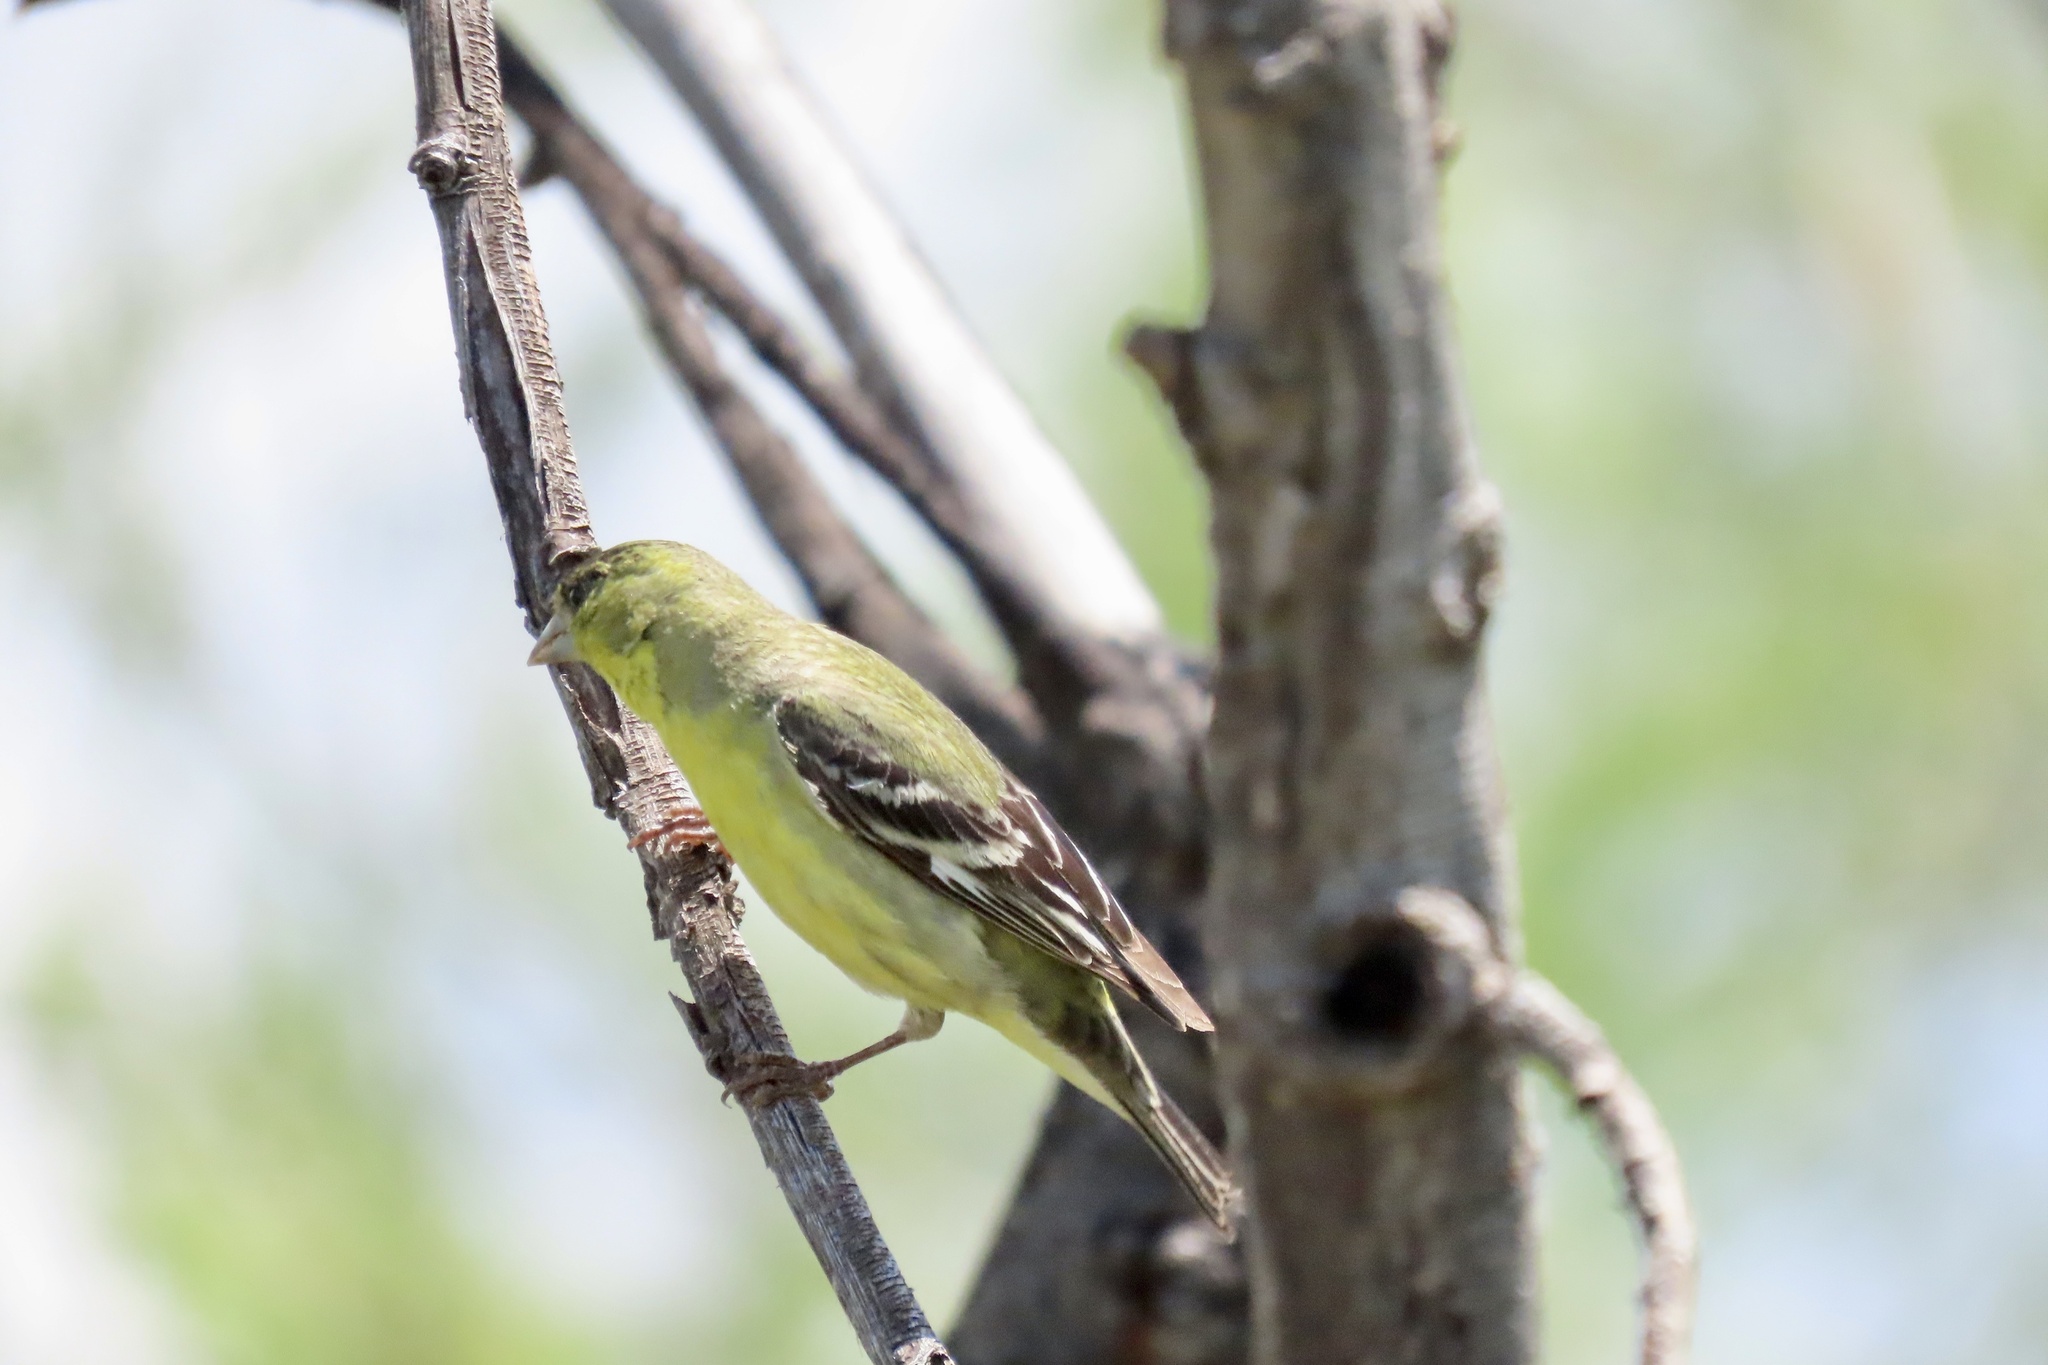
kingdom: Animalia
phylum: Chordata
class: Aves
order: Passeriformes
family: Fringillidae
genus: Spinus
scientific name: Spinus psaltria
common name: Lesser goldfinch
